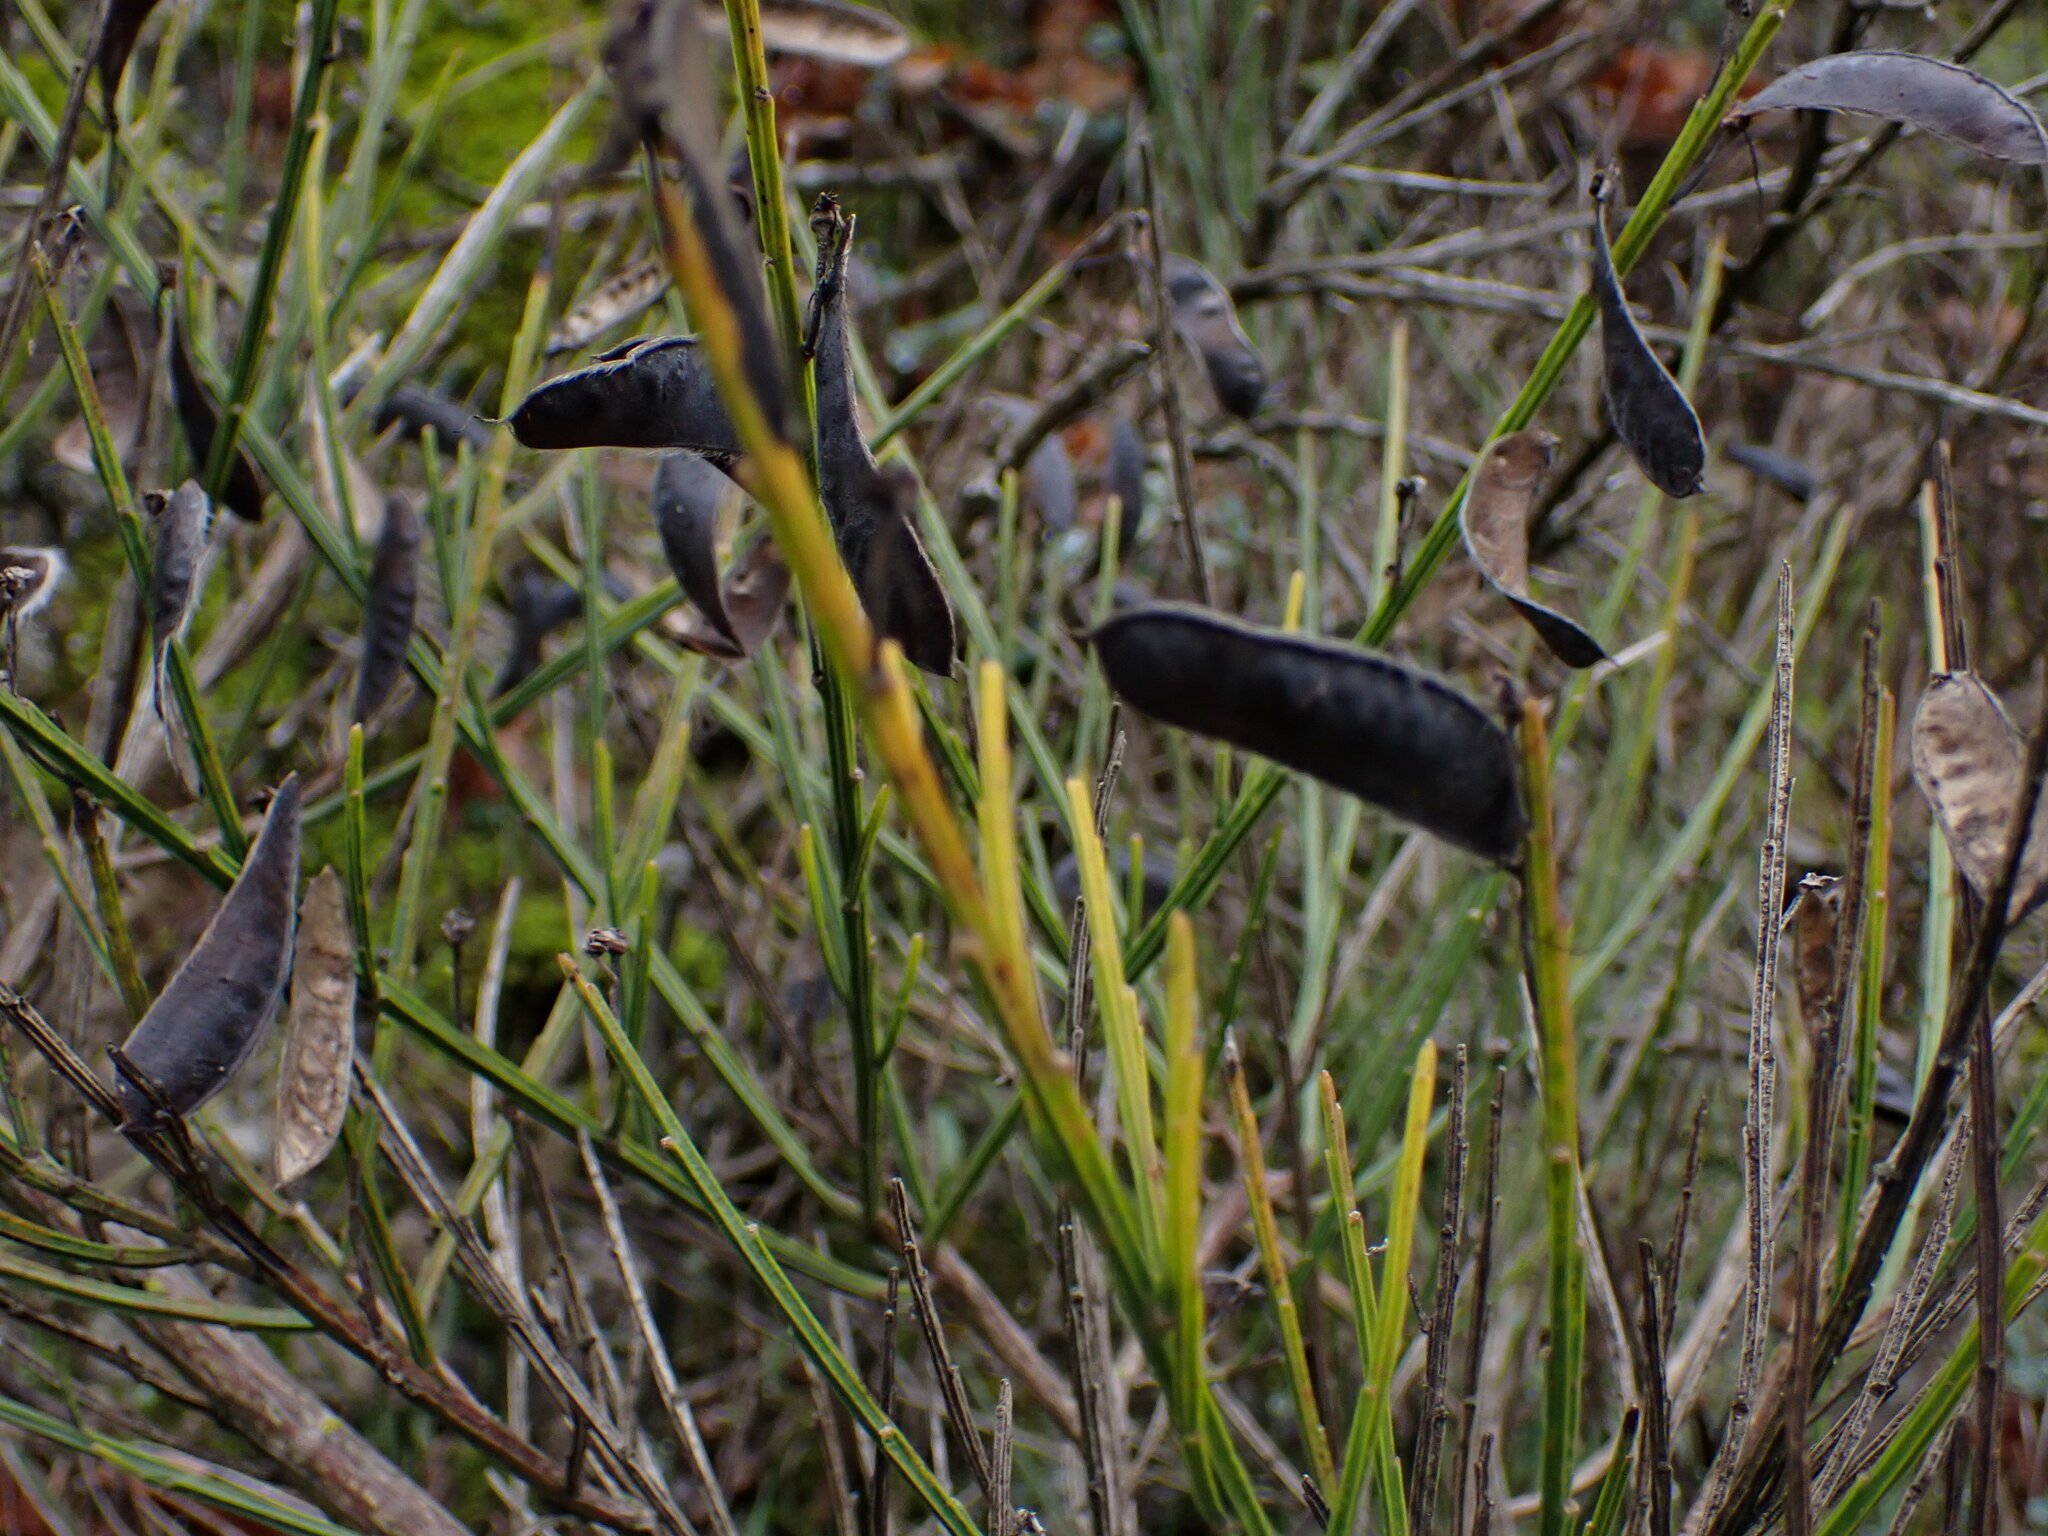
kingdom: Plantae
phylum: Tracheophyta
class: Magnoliopsida
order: Fabales
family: Fabaceae
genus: Cytisus
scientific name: Cytisus scoparius
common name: Scotch broom
